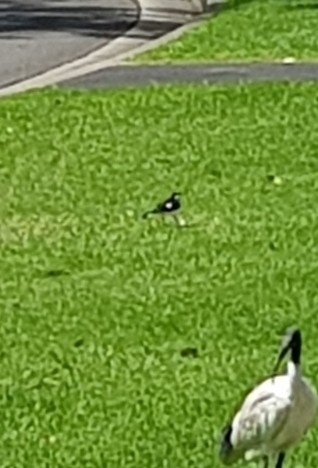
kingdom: Animalia
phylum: Chordata
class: Aves
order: Passeriformes
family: Monarchidae
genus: Grallina
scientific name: Grallina cyanoleuca
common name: Magpie-lark
